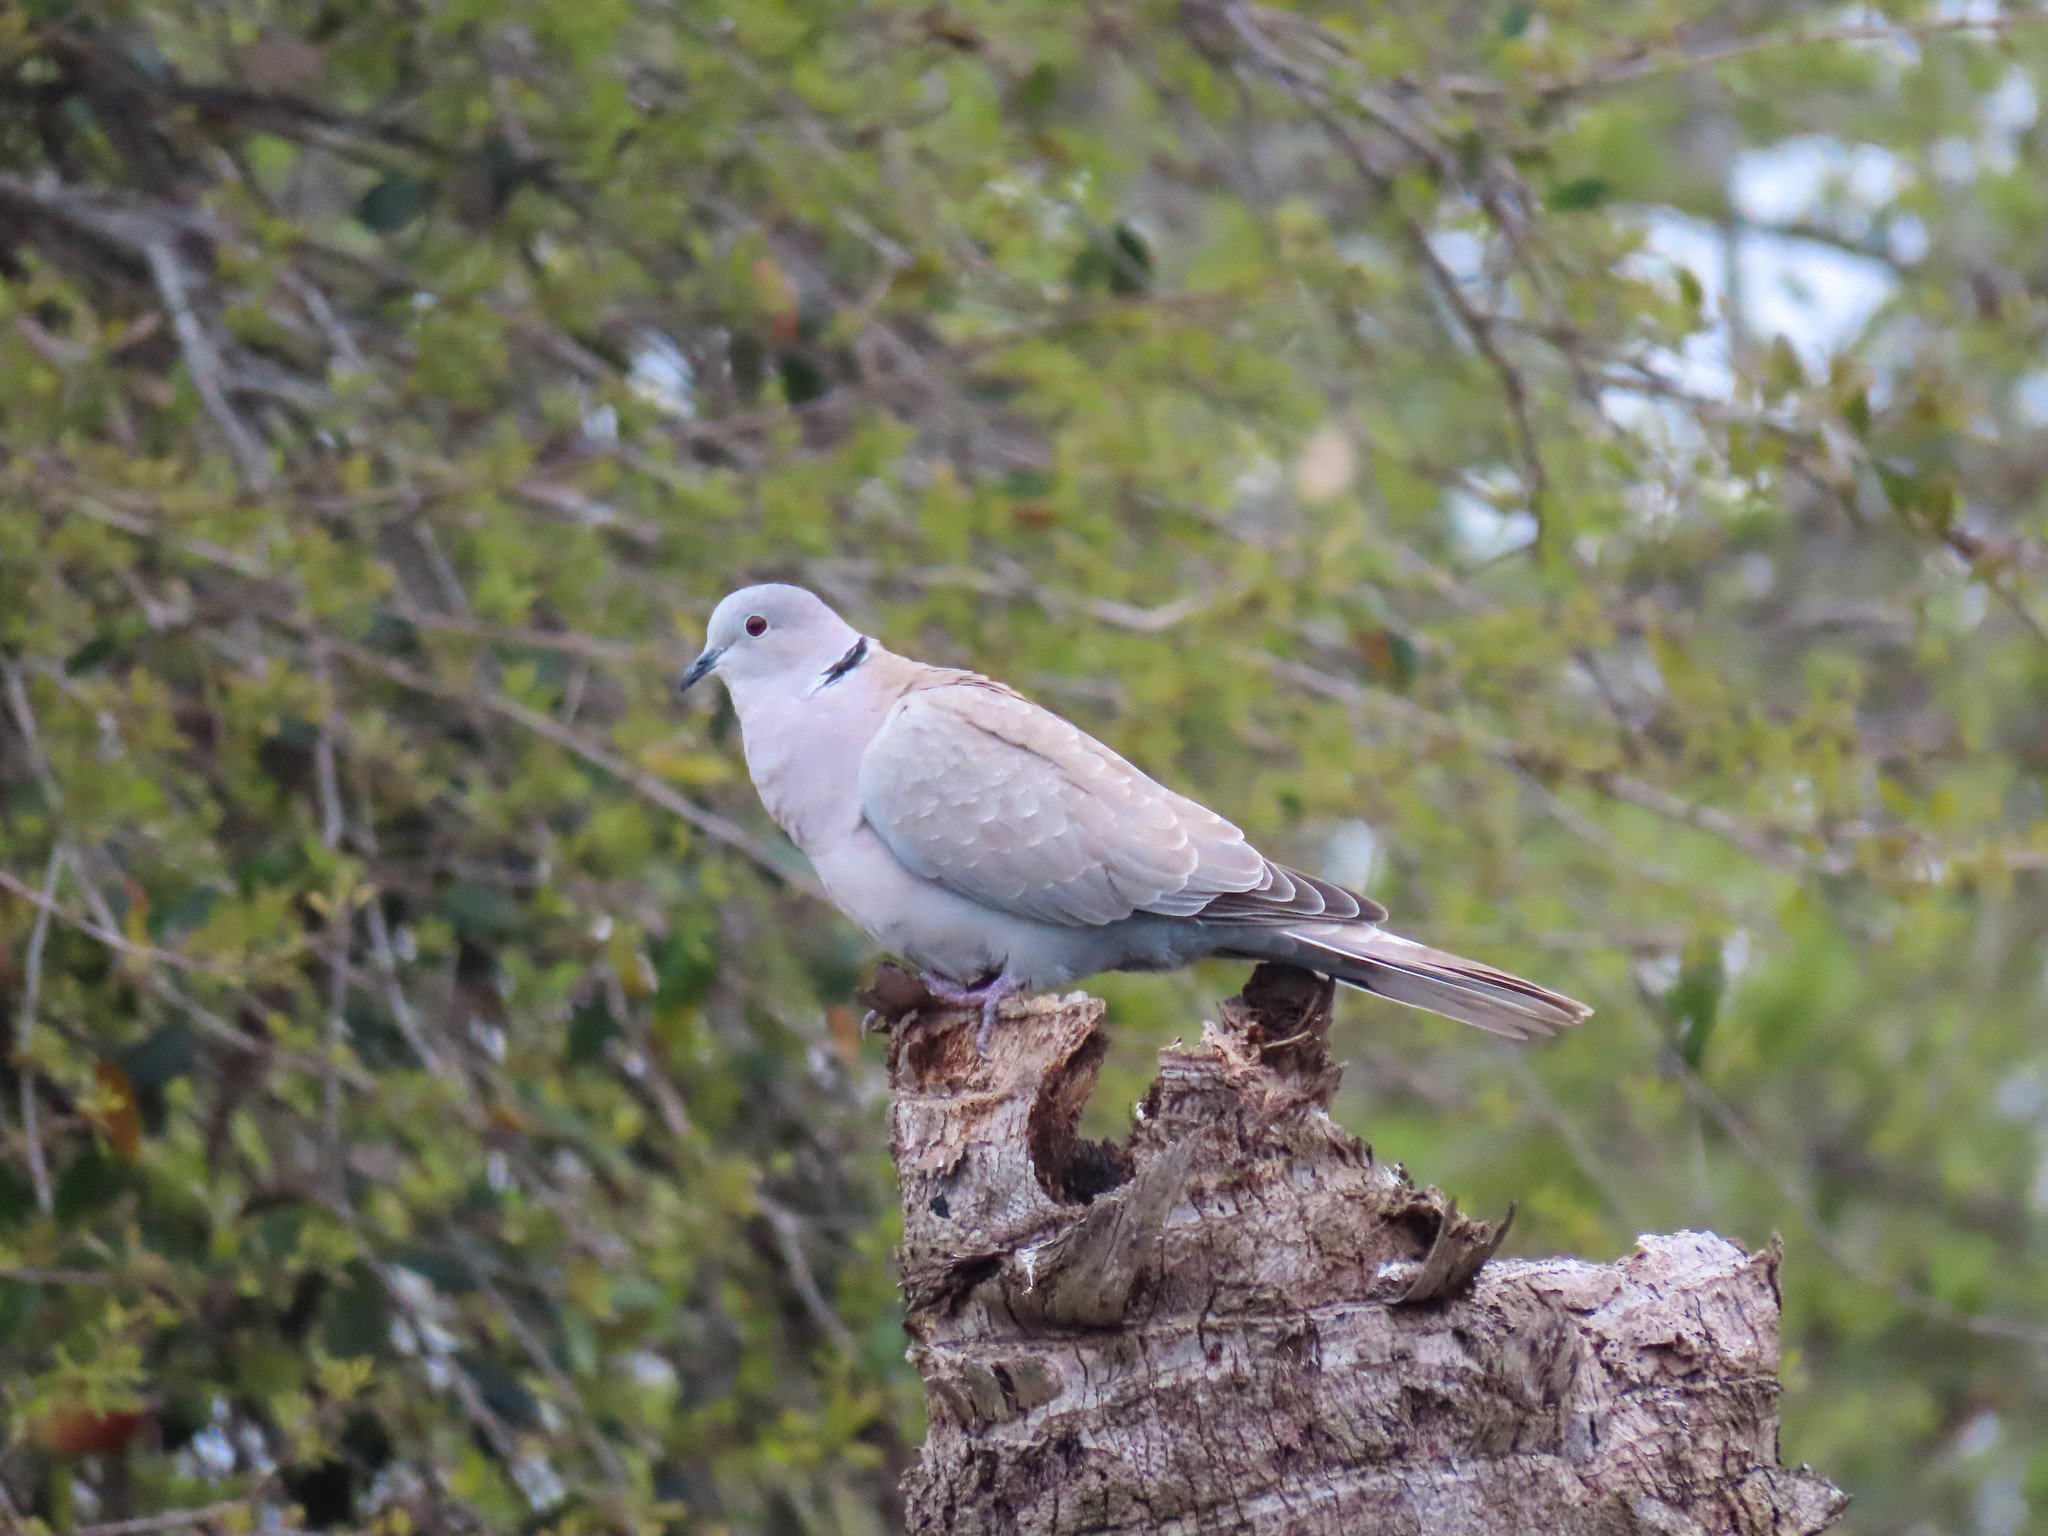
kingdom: Animalia
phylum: Chordata
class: Aves
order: Columbiformes
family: Columbidae
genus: Streptopelia
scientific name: Streptopelia decaocto
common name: Eurasian collared dove
